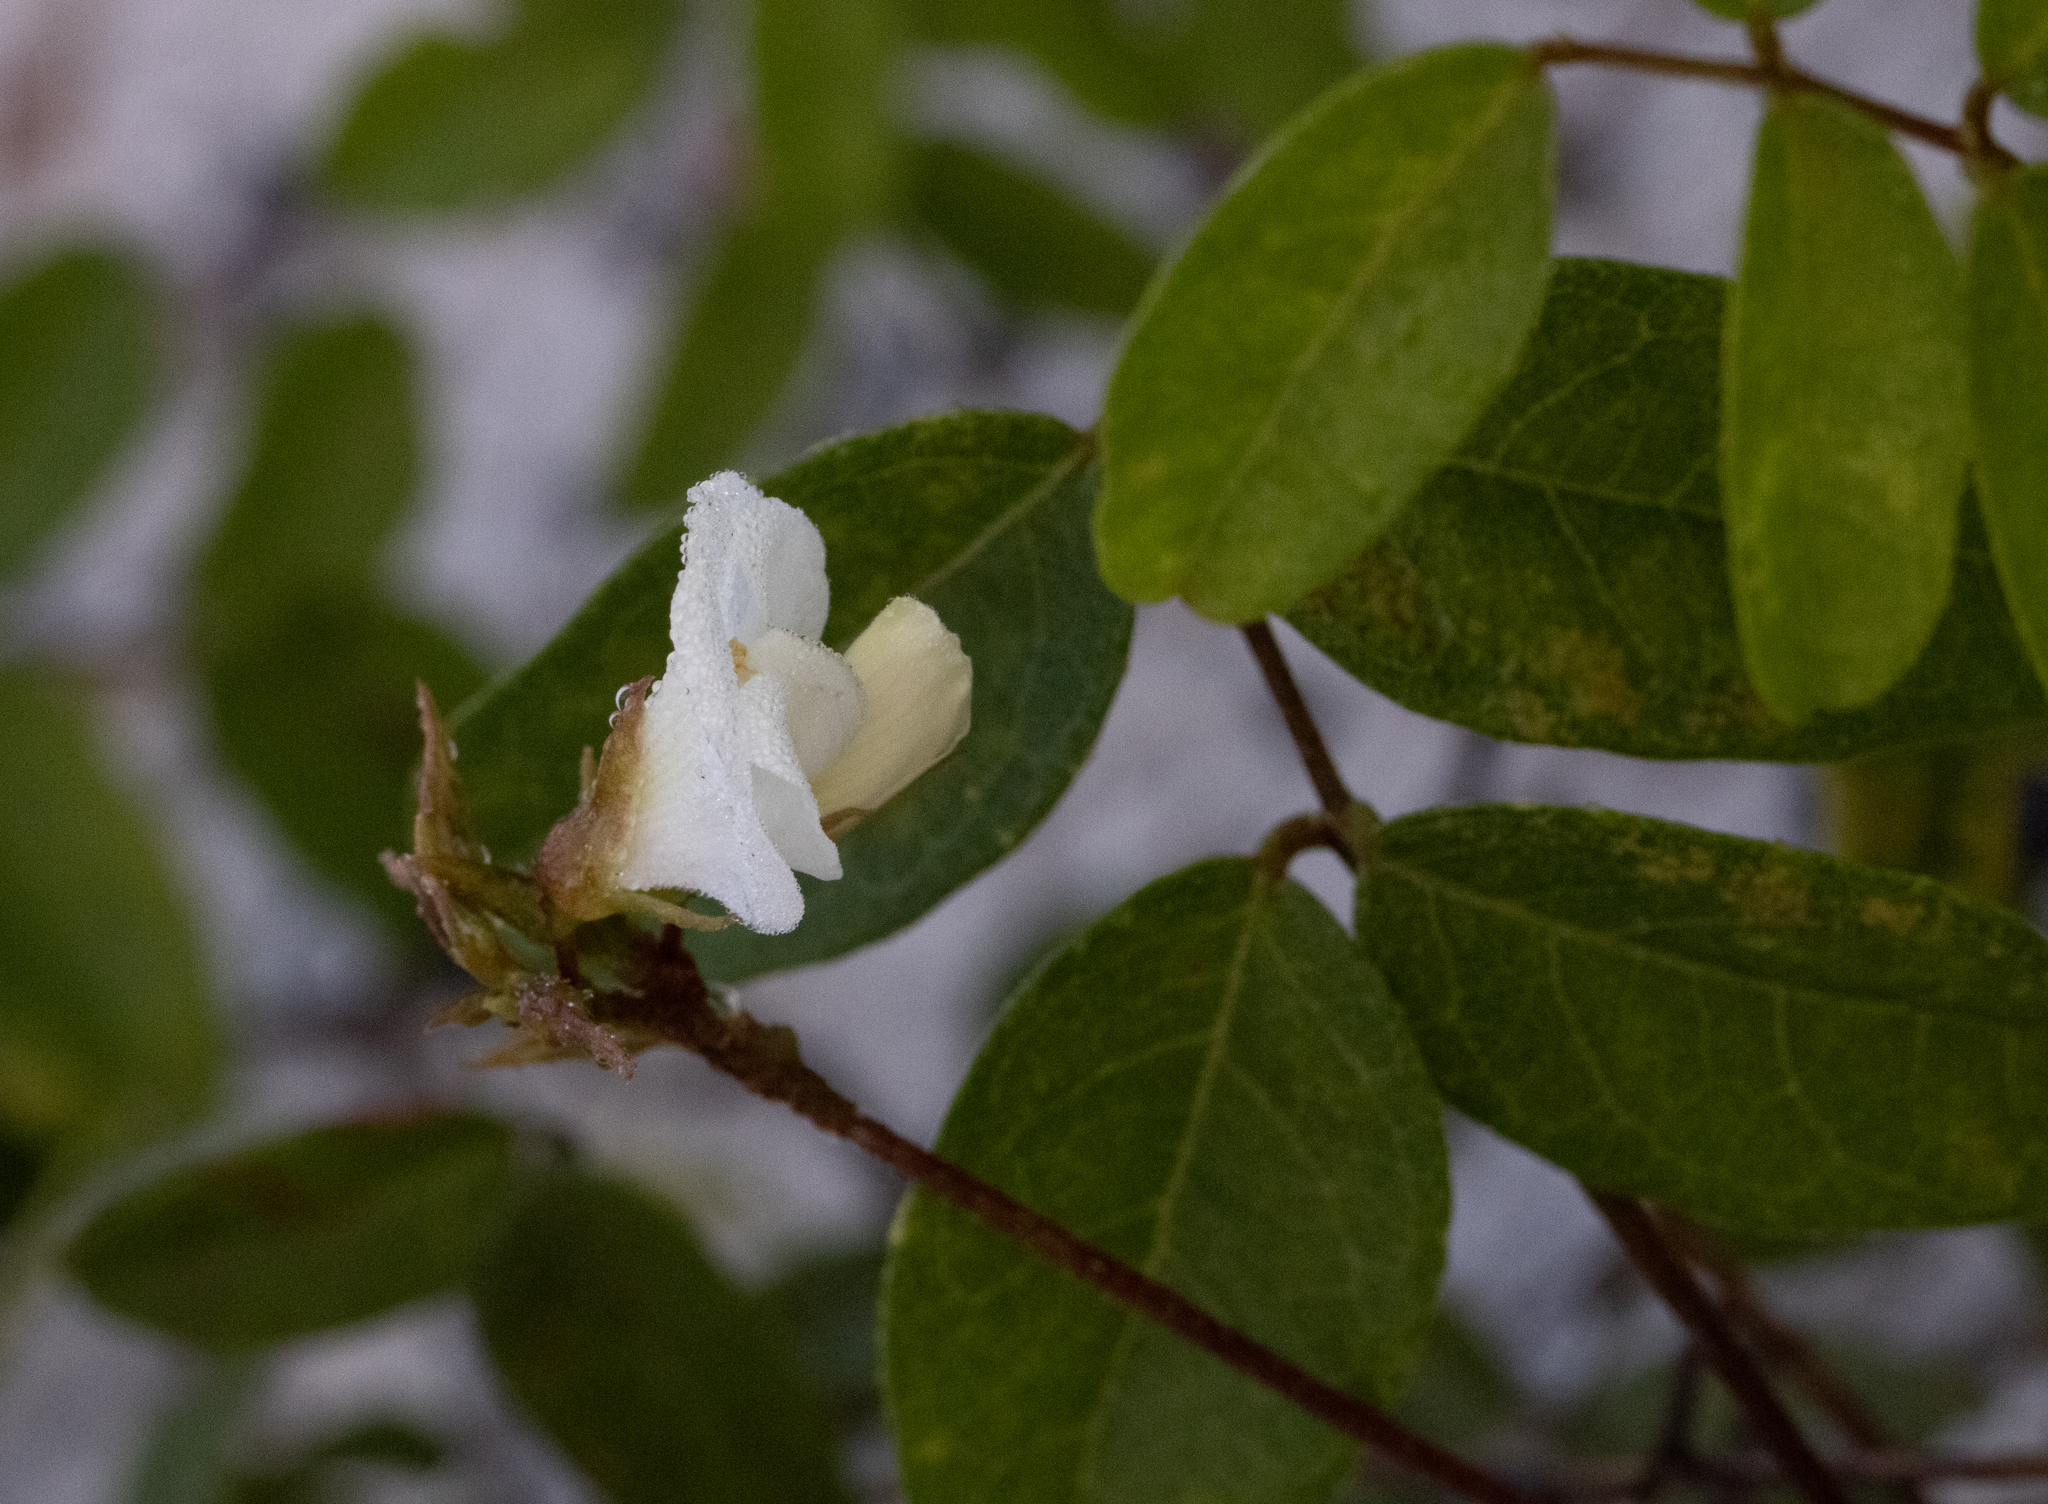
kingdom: Plantae
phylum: Tracheophyta
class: Magnoliopsida
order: Fabales
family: Fabaceae
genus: Galactia
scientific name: Galactia elliottii
